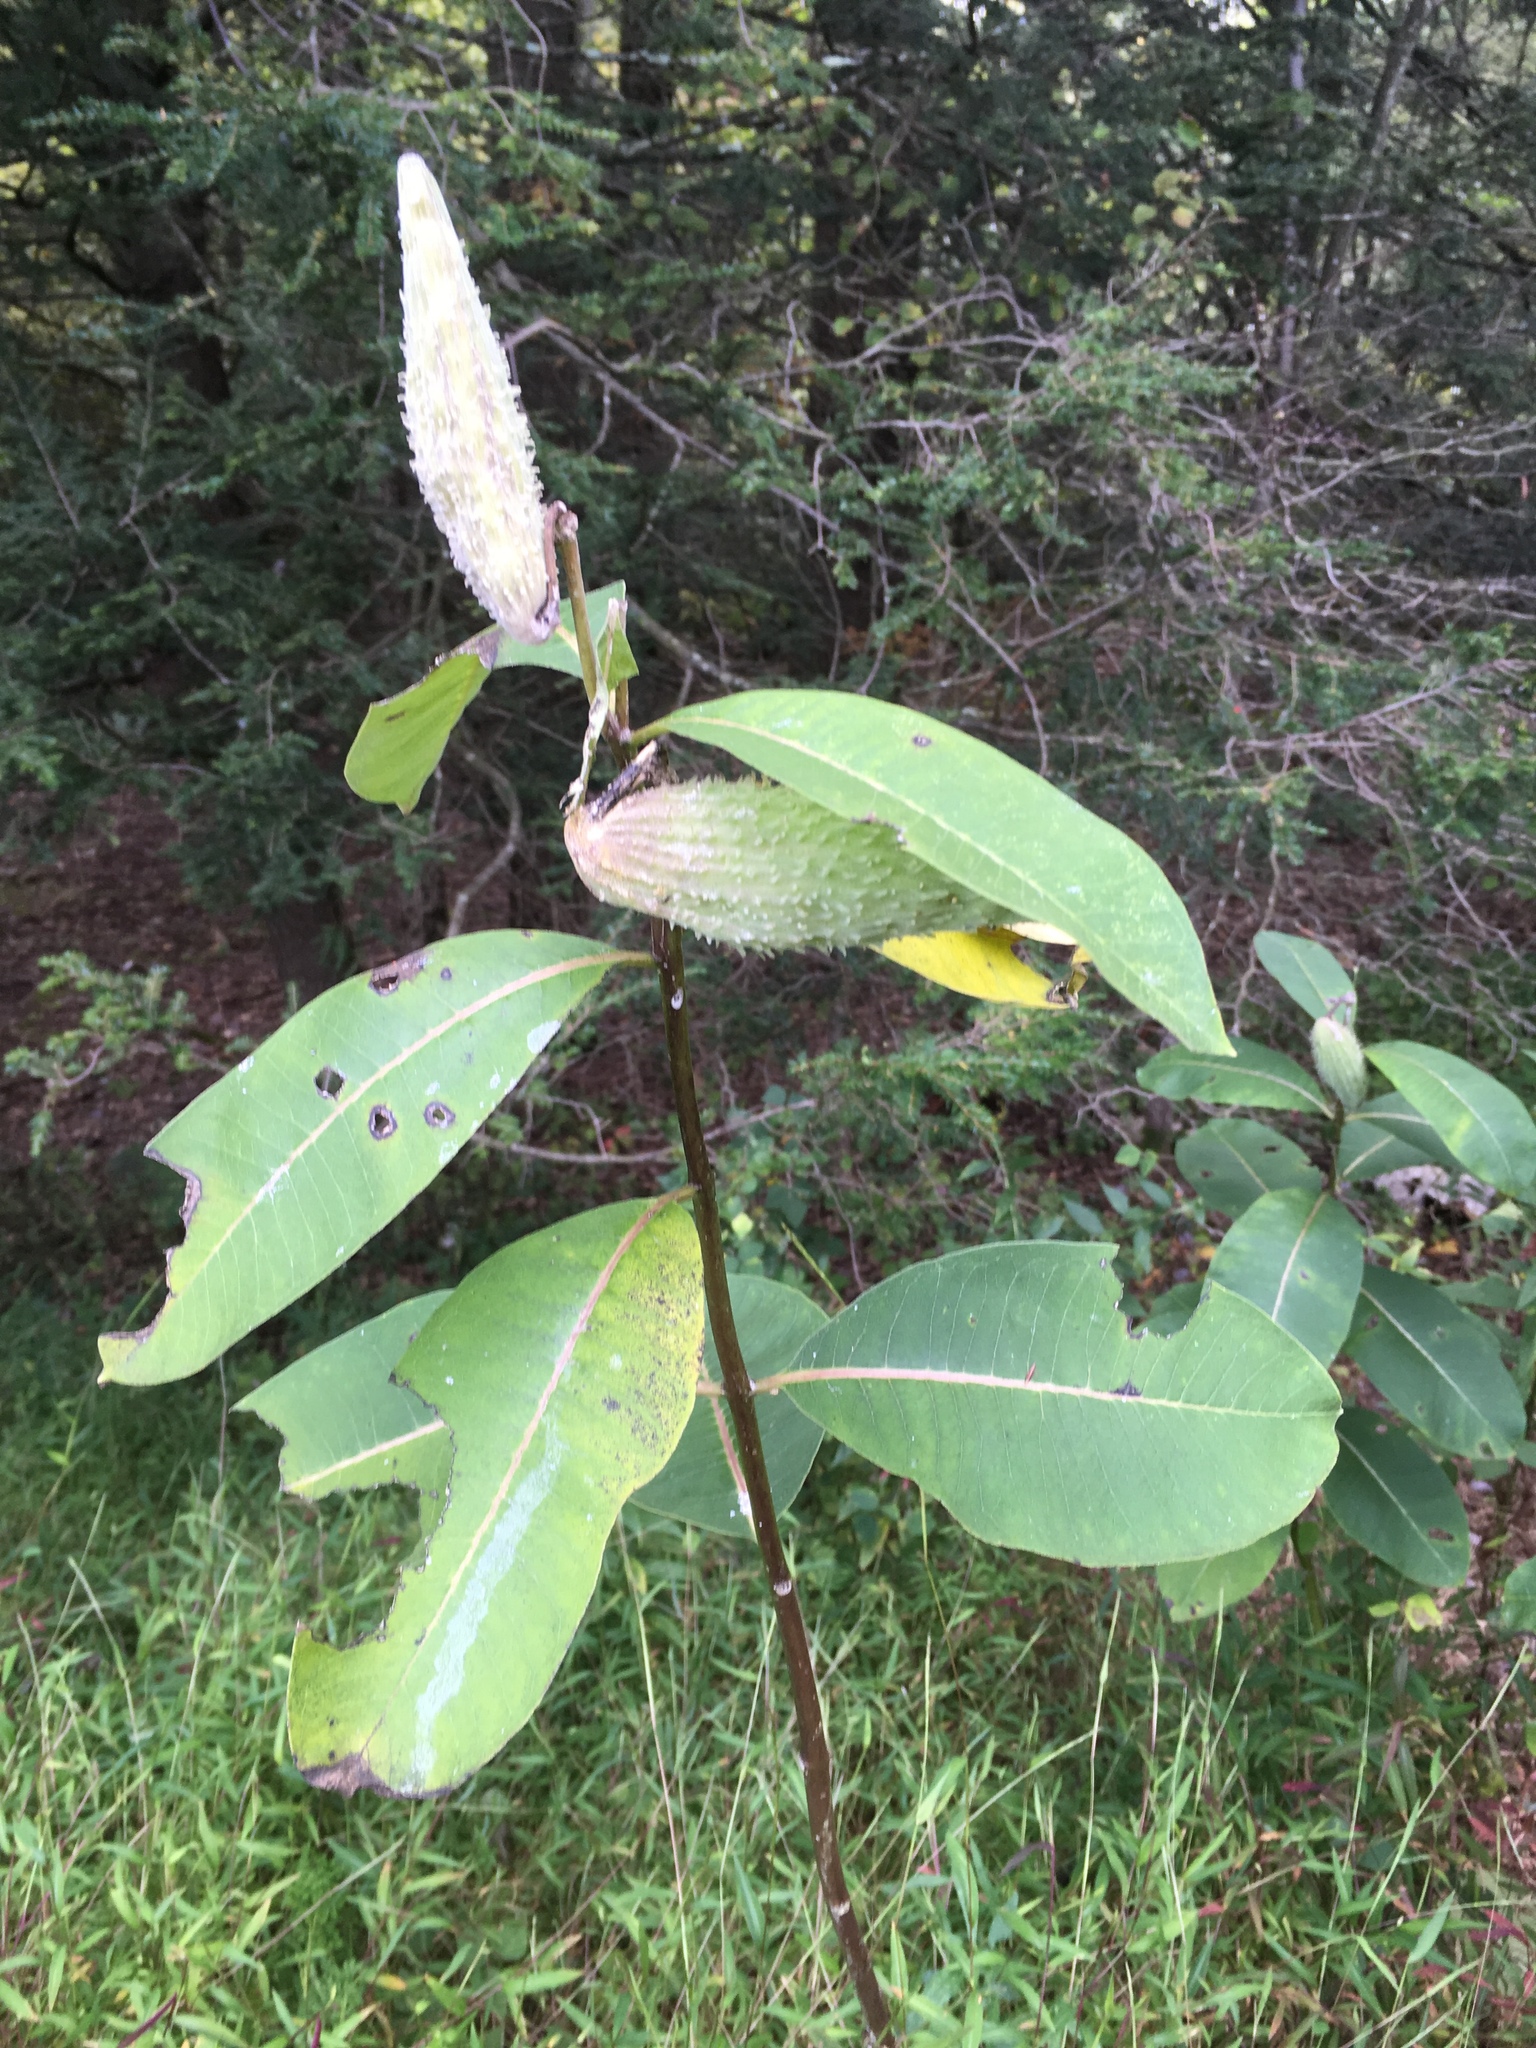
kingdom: Plantae
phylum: Tracheophyta
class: Magnoliopsida
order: Gentianales
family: Apocynaceae
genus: Asclepias
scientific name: Asclepias syriaca
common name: Common milkweed
